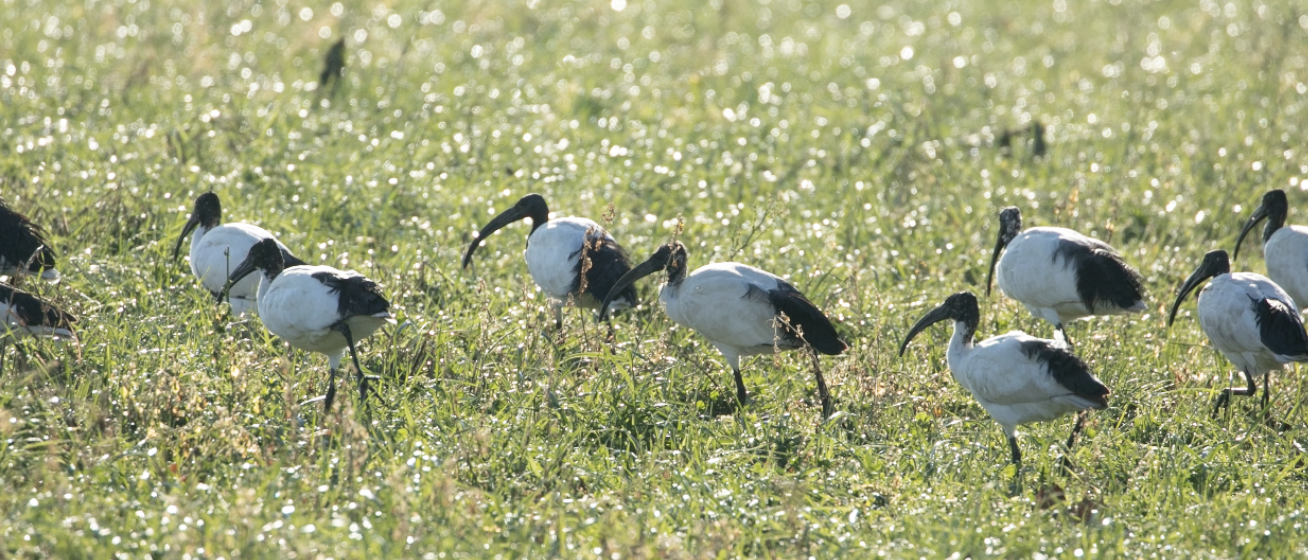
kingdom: Animalia
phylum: Chordata
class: Aves
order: Pelecaniformes
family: Threskiornithidae
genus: Threskiornis
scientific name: Threskiornis aethiopicus
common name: Sacred ibis
